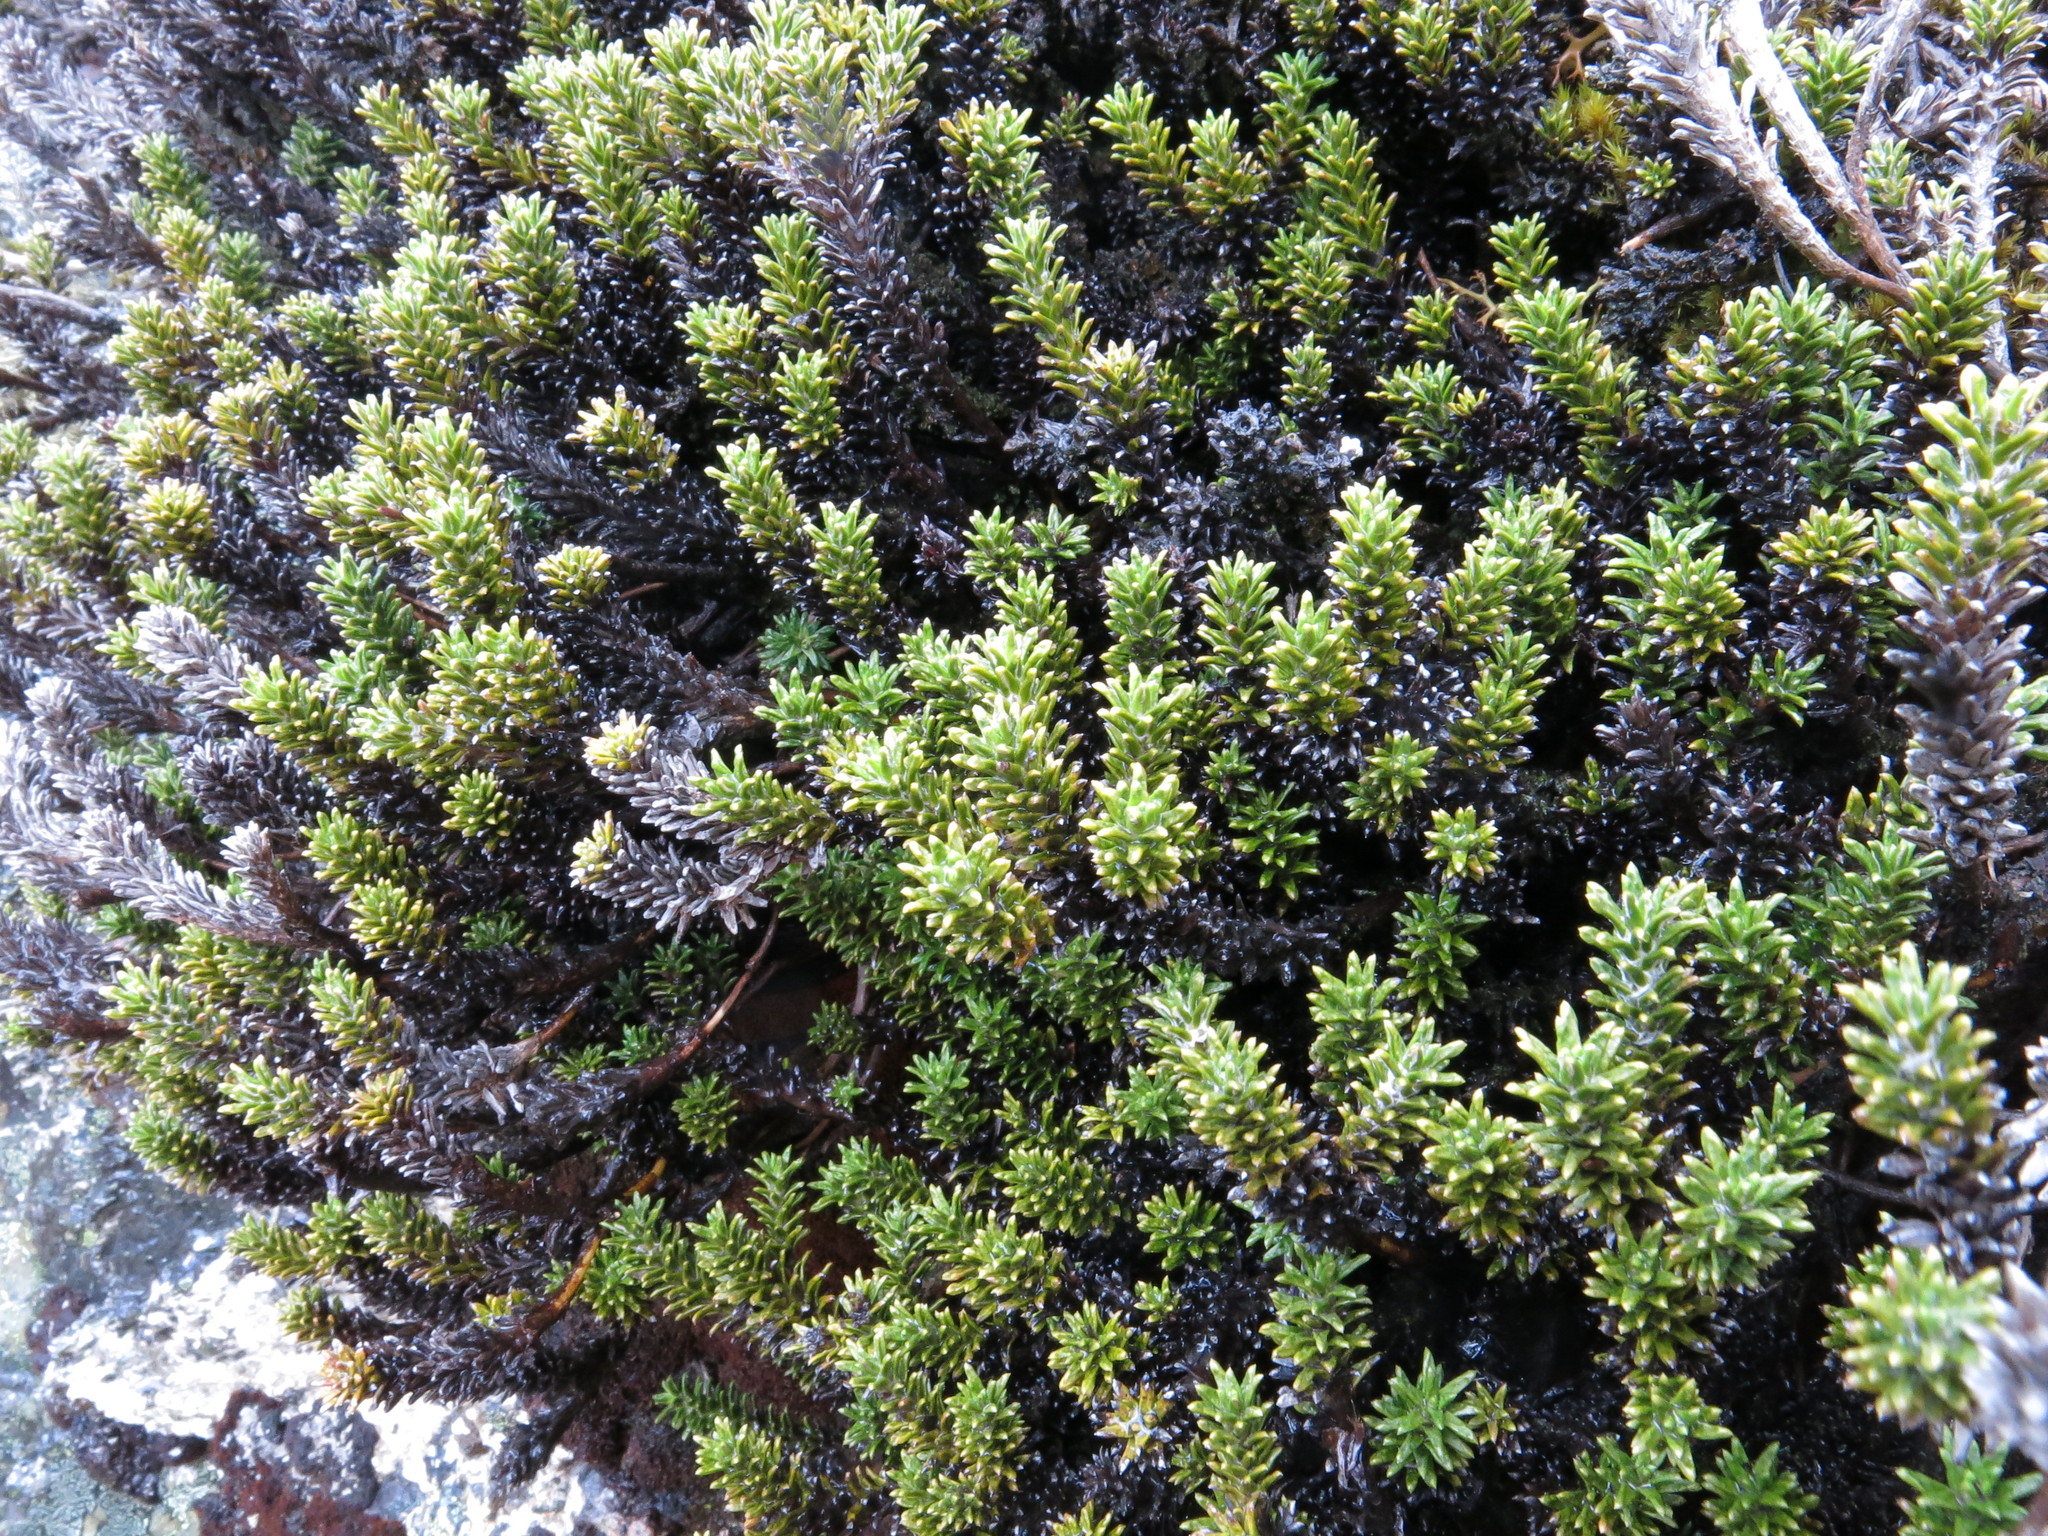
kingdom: Plantae
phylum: Tracheophyta
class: Magnoliopsida
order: Asterales
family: Asteraceae
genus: Celmisia
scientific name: Celmisia ramulosa
